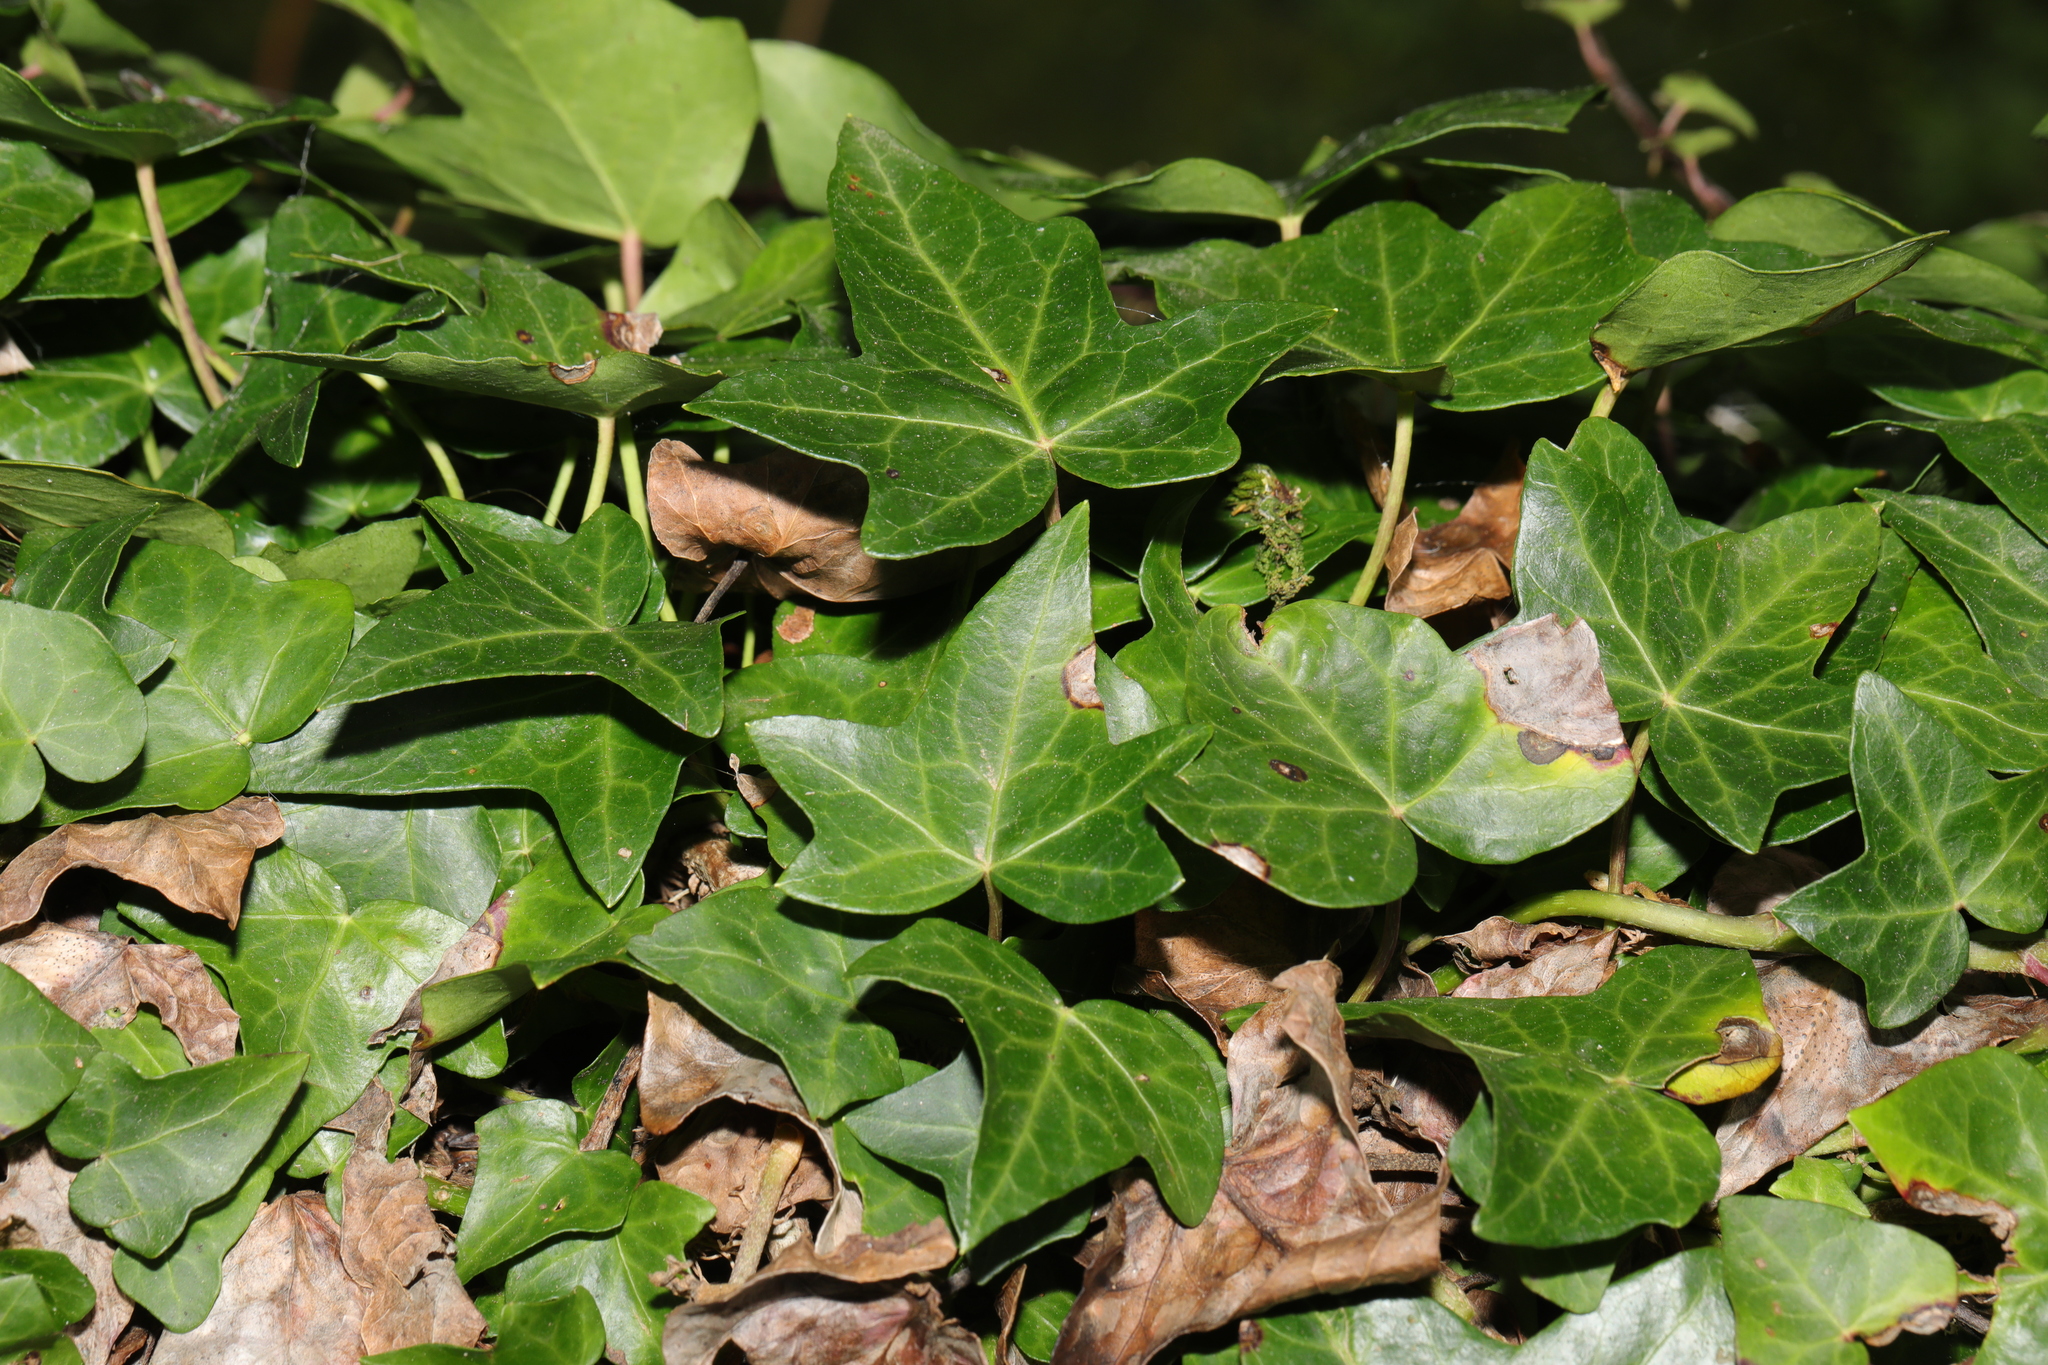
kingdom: Plantae
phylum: Tracheophyta
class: Magnoliopsida
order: Apiales
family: Araliaceae
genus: Hedera
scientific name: Hedera helix
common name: Ivy
